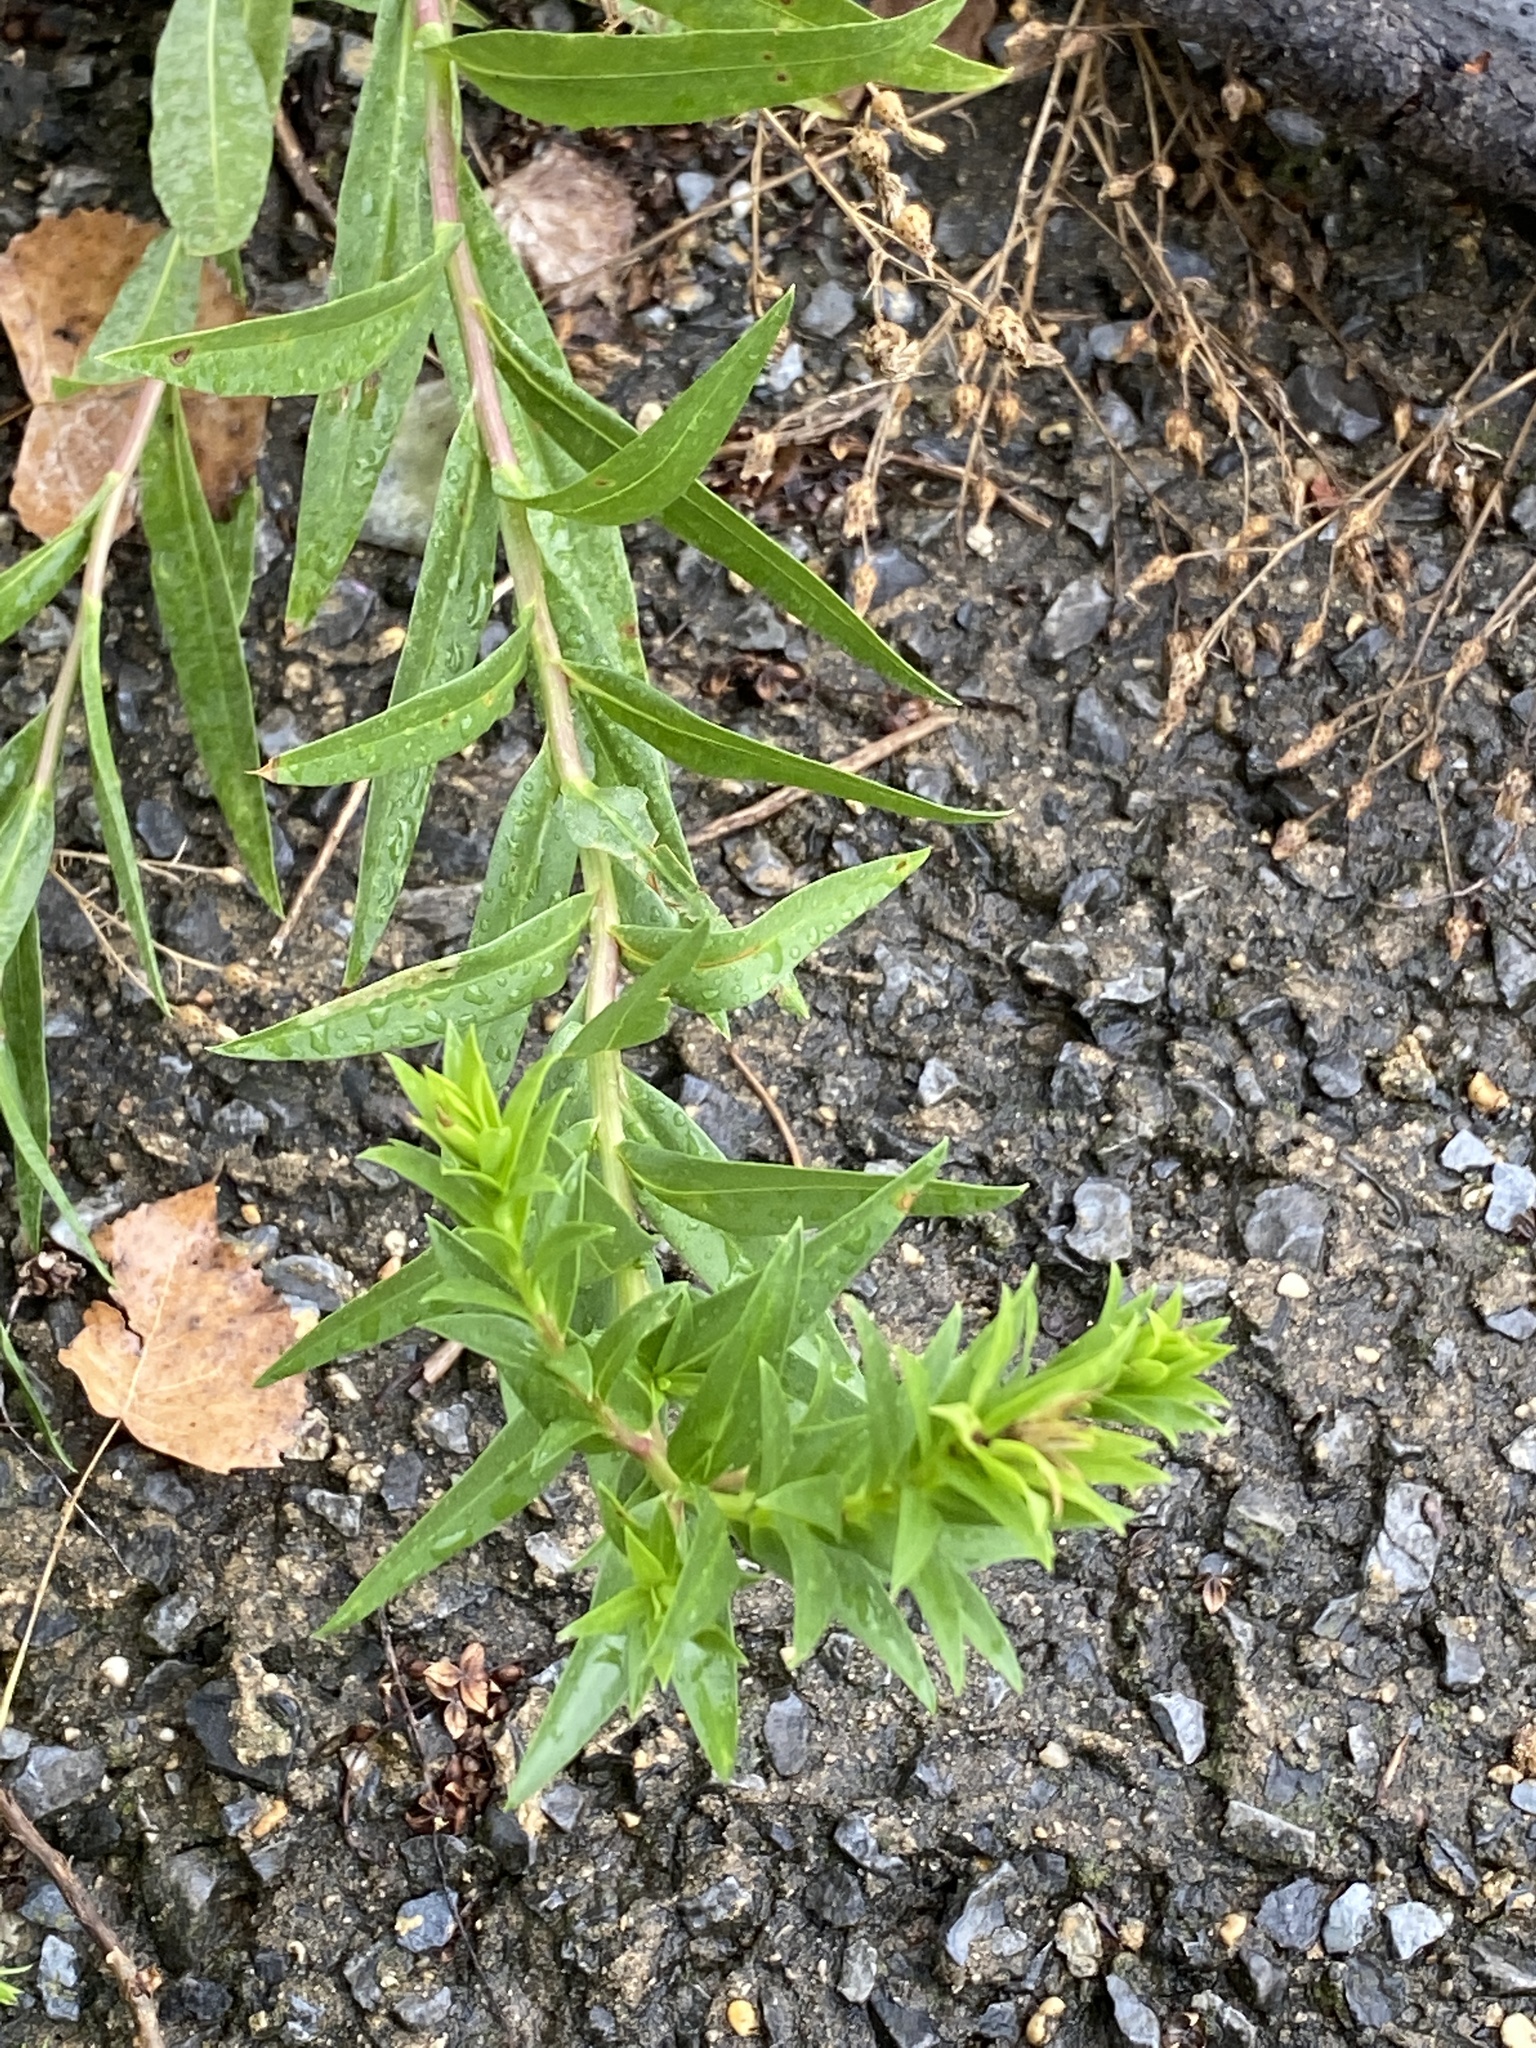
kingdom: Plantae
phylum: Tracheophyta
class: Magnoliopsida
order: Asterales
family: Asteraceae
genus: Solidago
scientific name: Solidago sempervirens
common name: Salt-marsh goldenrod
